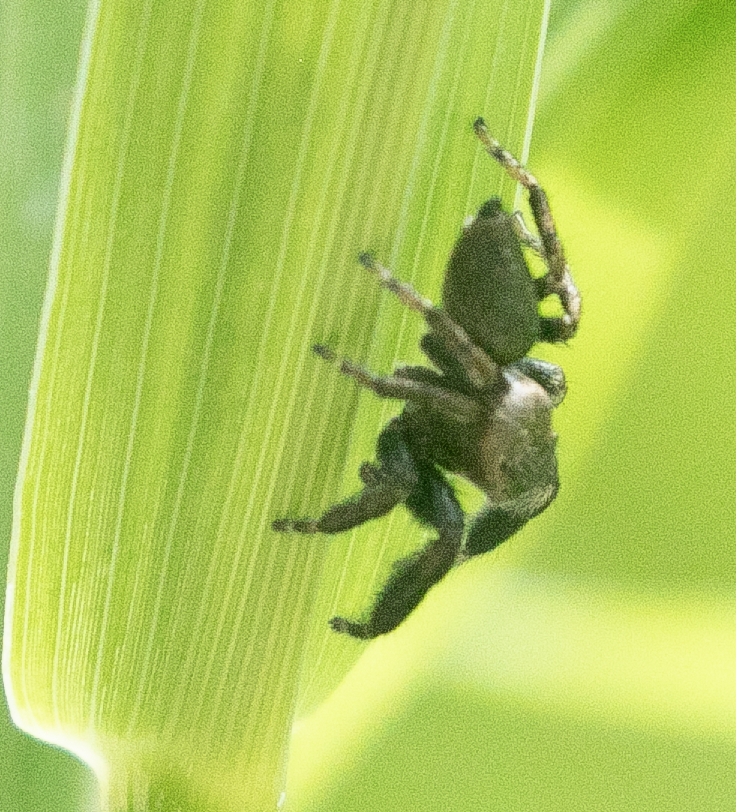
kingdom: Animalia
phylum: Arthropoda
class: Arachnida
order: Araneae
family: Salticidae
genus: Evarcha
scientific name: Evarcha arcuata
